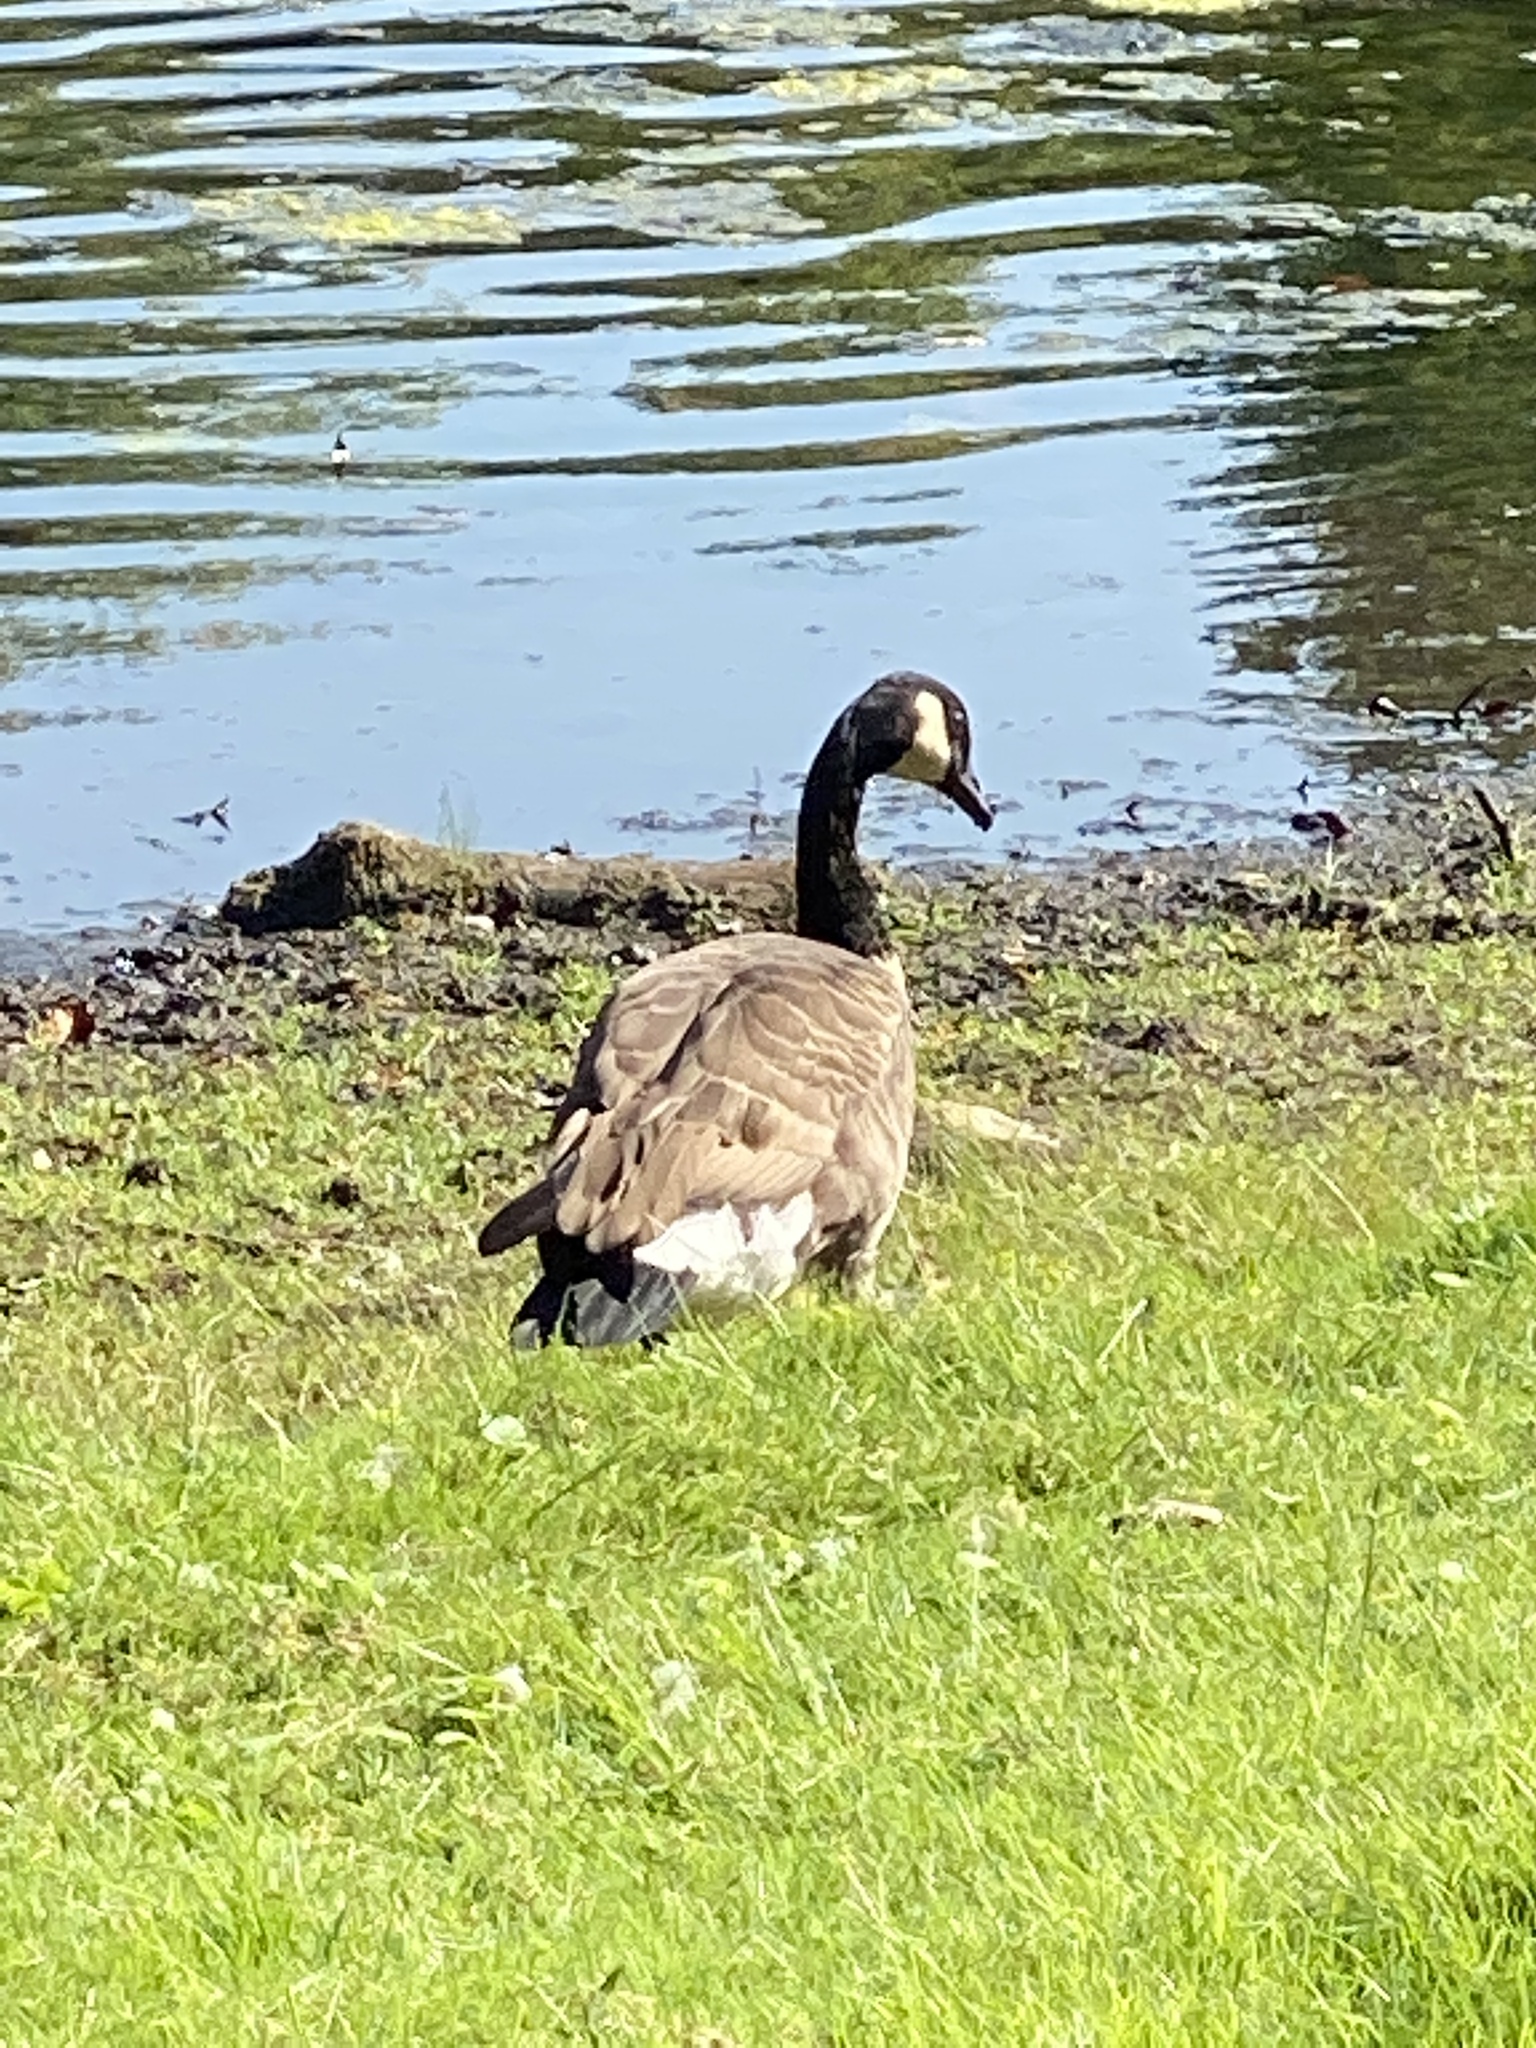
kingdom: Animalia
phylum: Chordata
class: Aves
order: Anseriformes
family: Anatidae
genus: Branta
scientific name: Branta canadensis
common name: Canada goose
